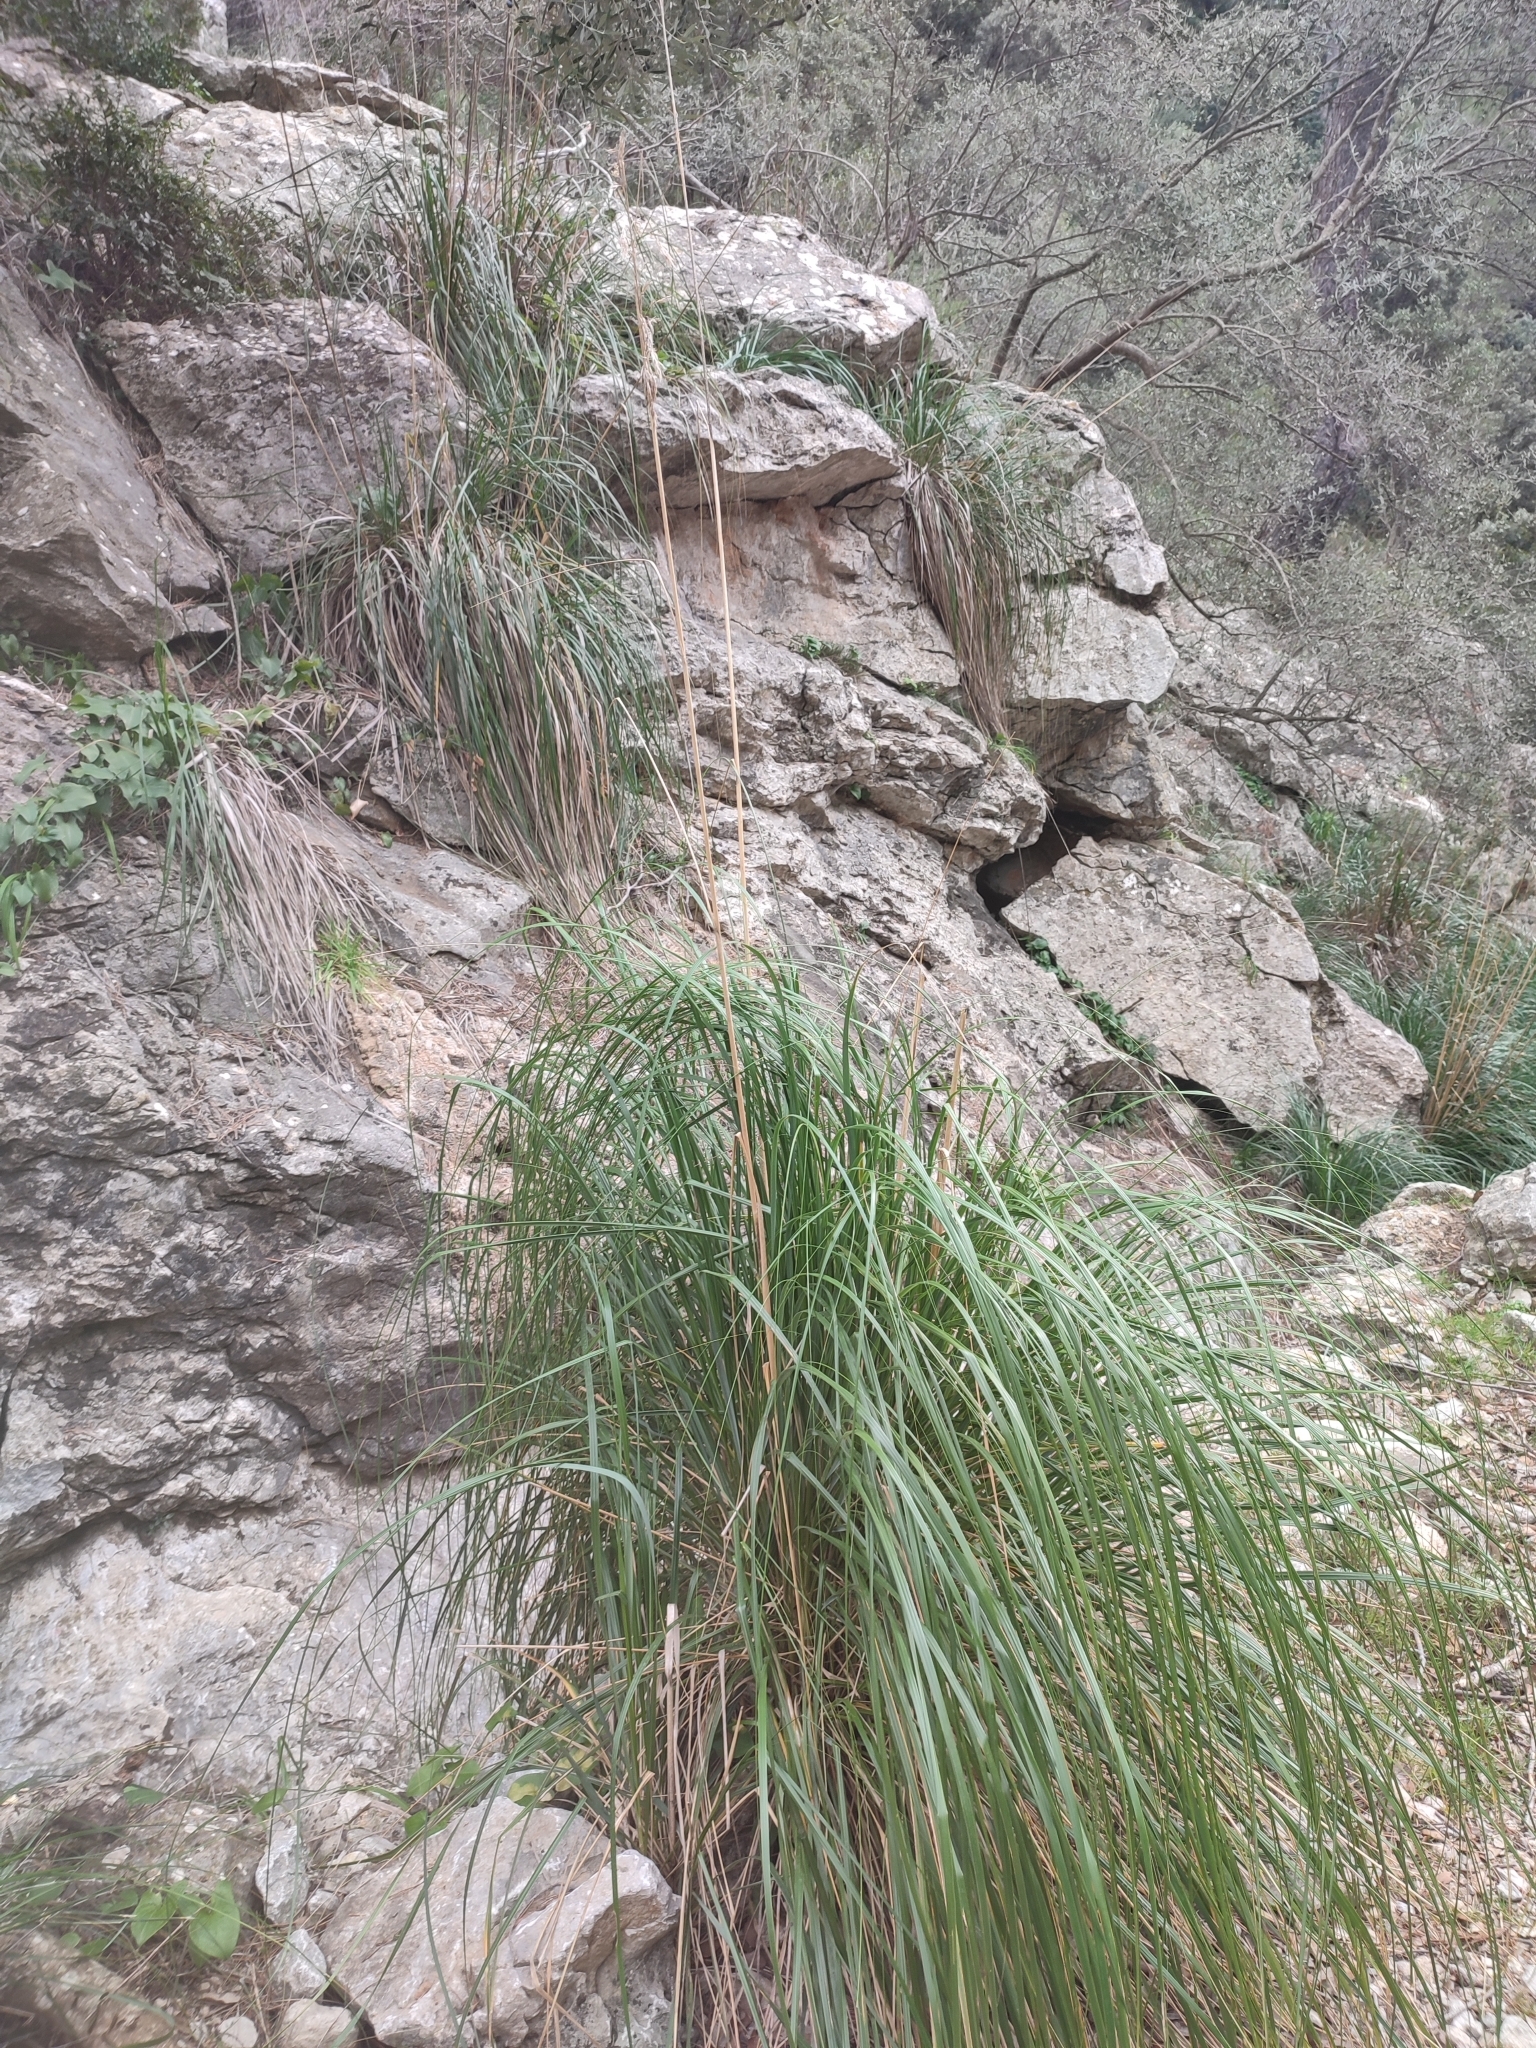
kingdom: Plantae
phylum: Tracheophyta
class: Liliopsida
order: Poales
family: Poaceae
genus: Ampelodesmos
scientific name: Ampelodesmos mauritanicus
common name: Mauritanian grass
